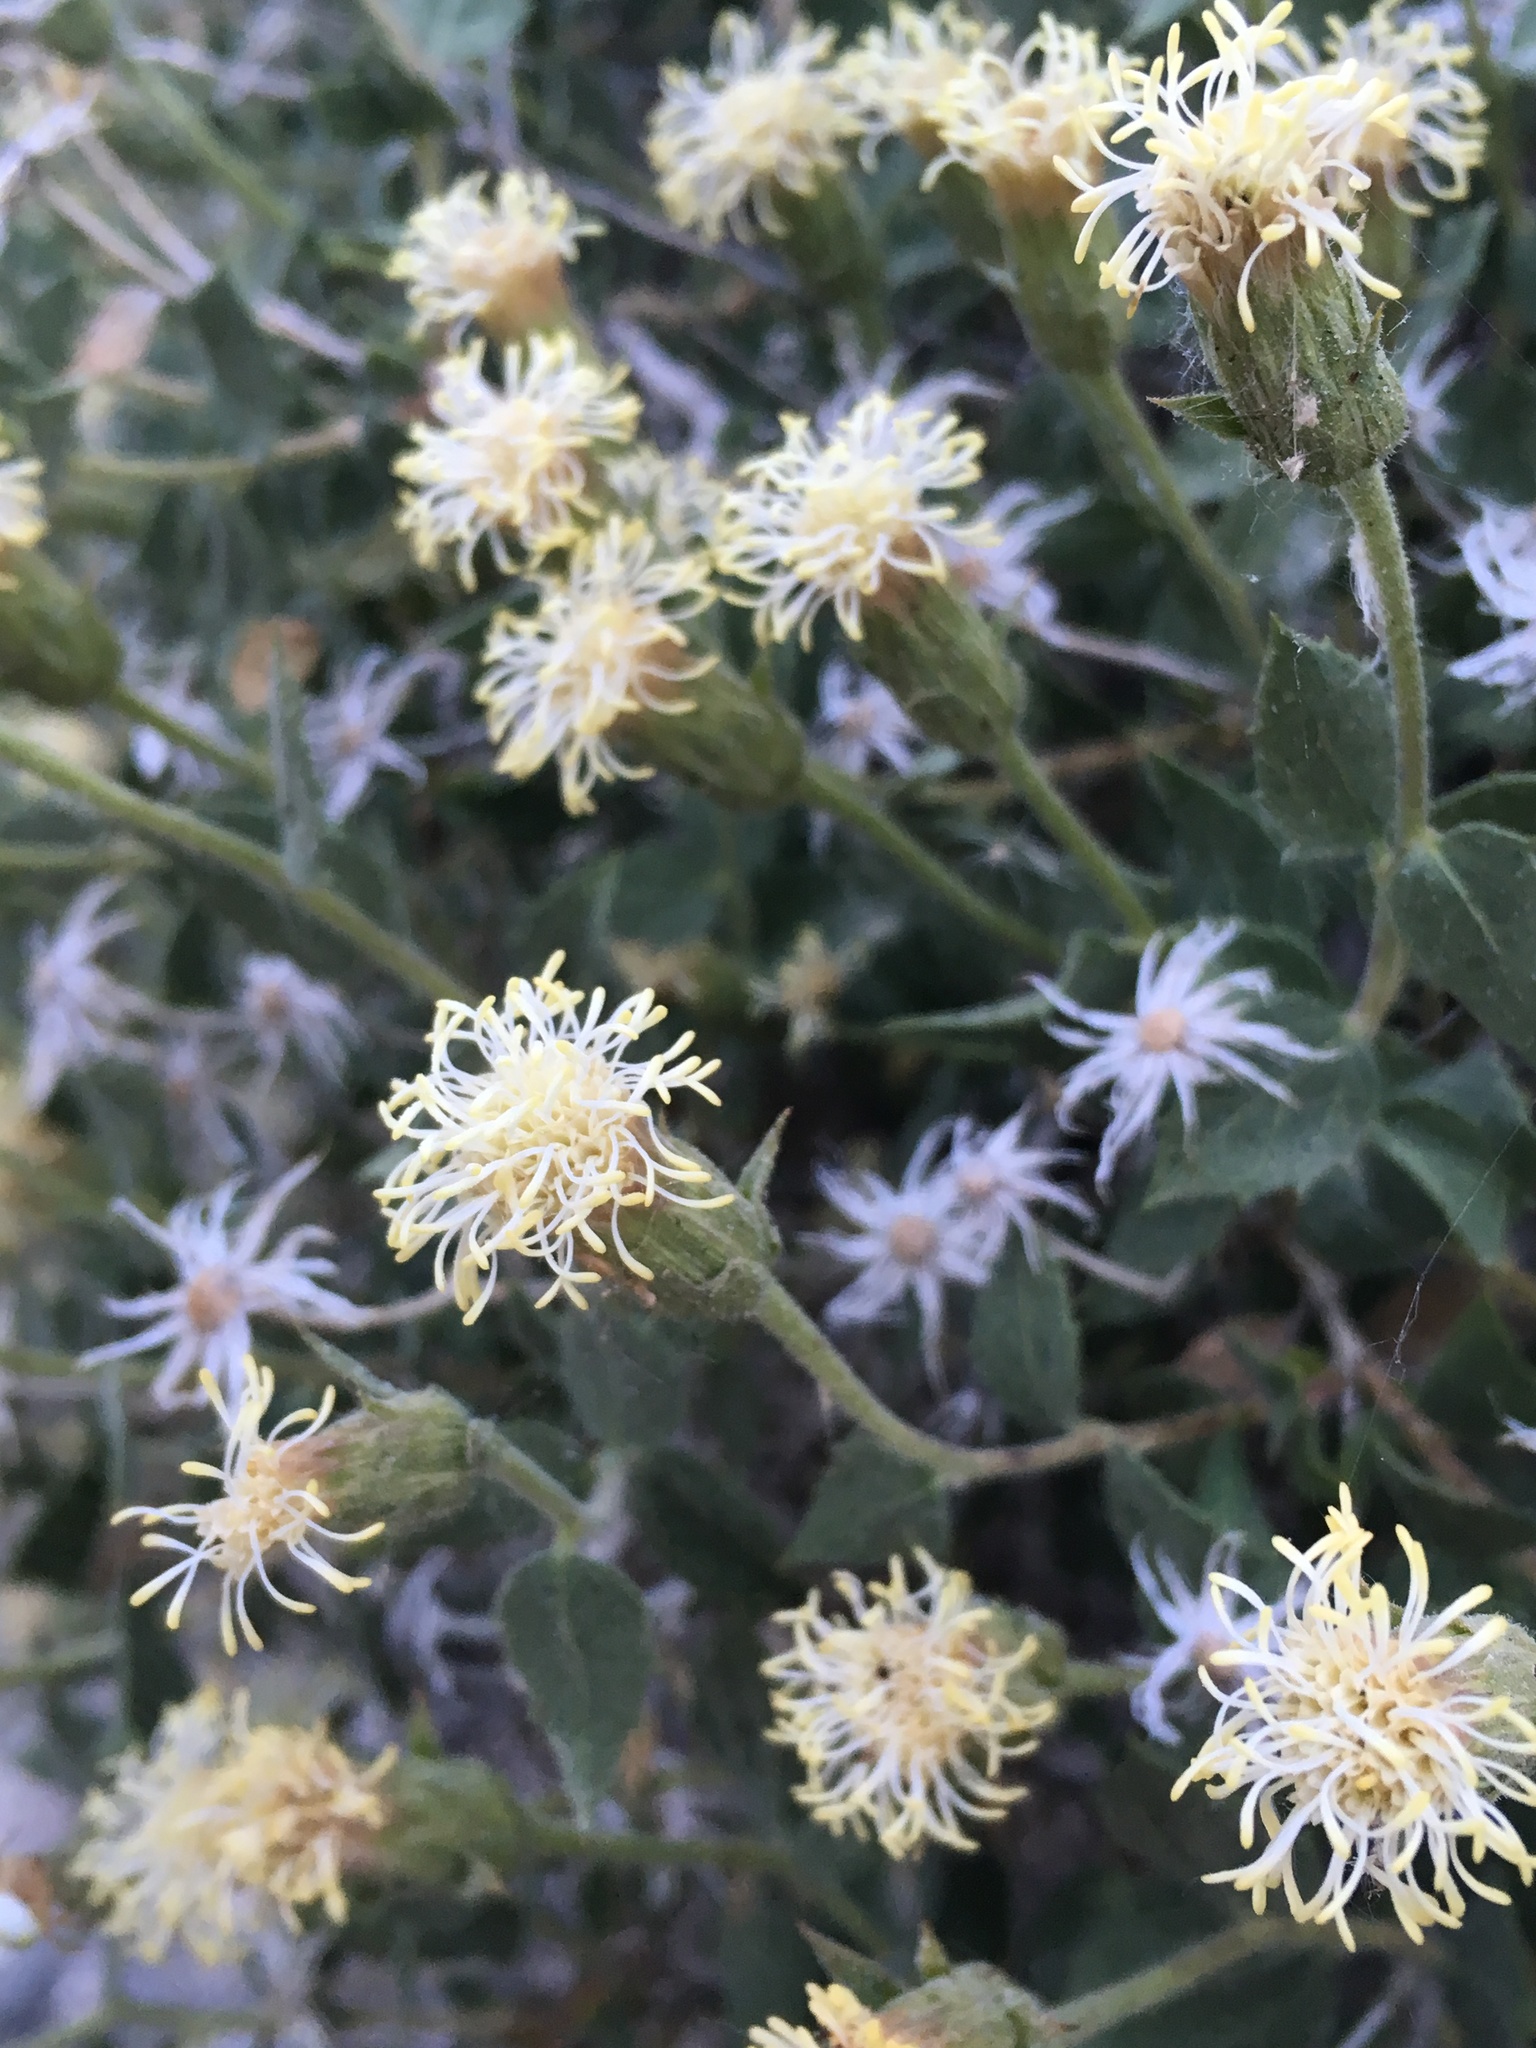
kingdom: Plantae
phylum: Tracheophyta
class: Magnoliopsida
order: Asterales
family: Asteraceae
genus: Brickellia
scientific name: Brickellia atractyloides
